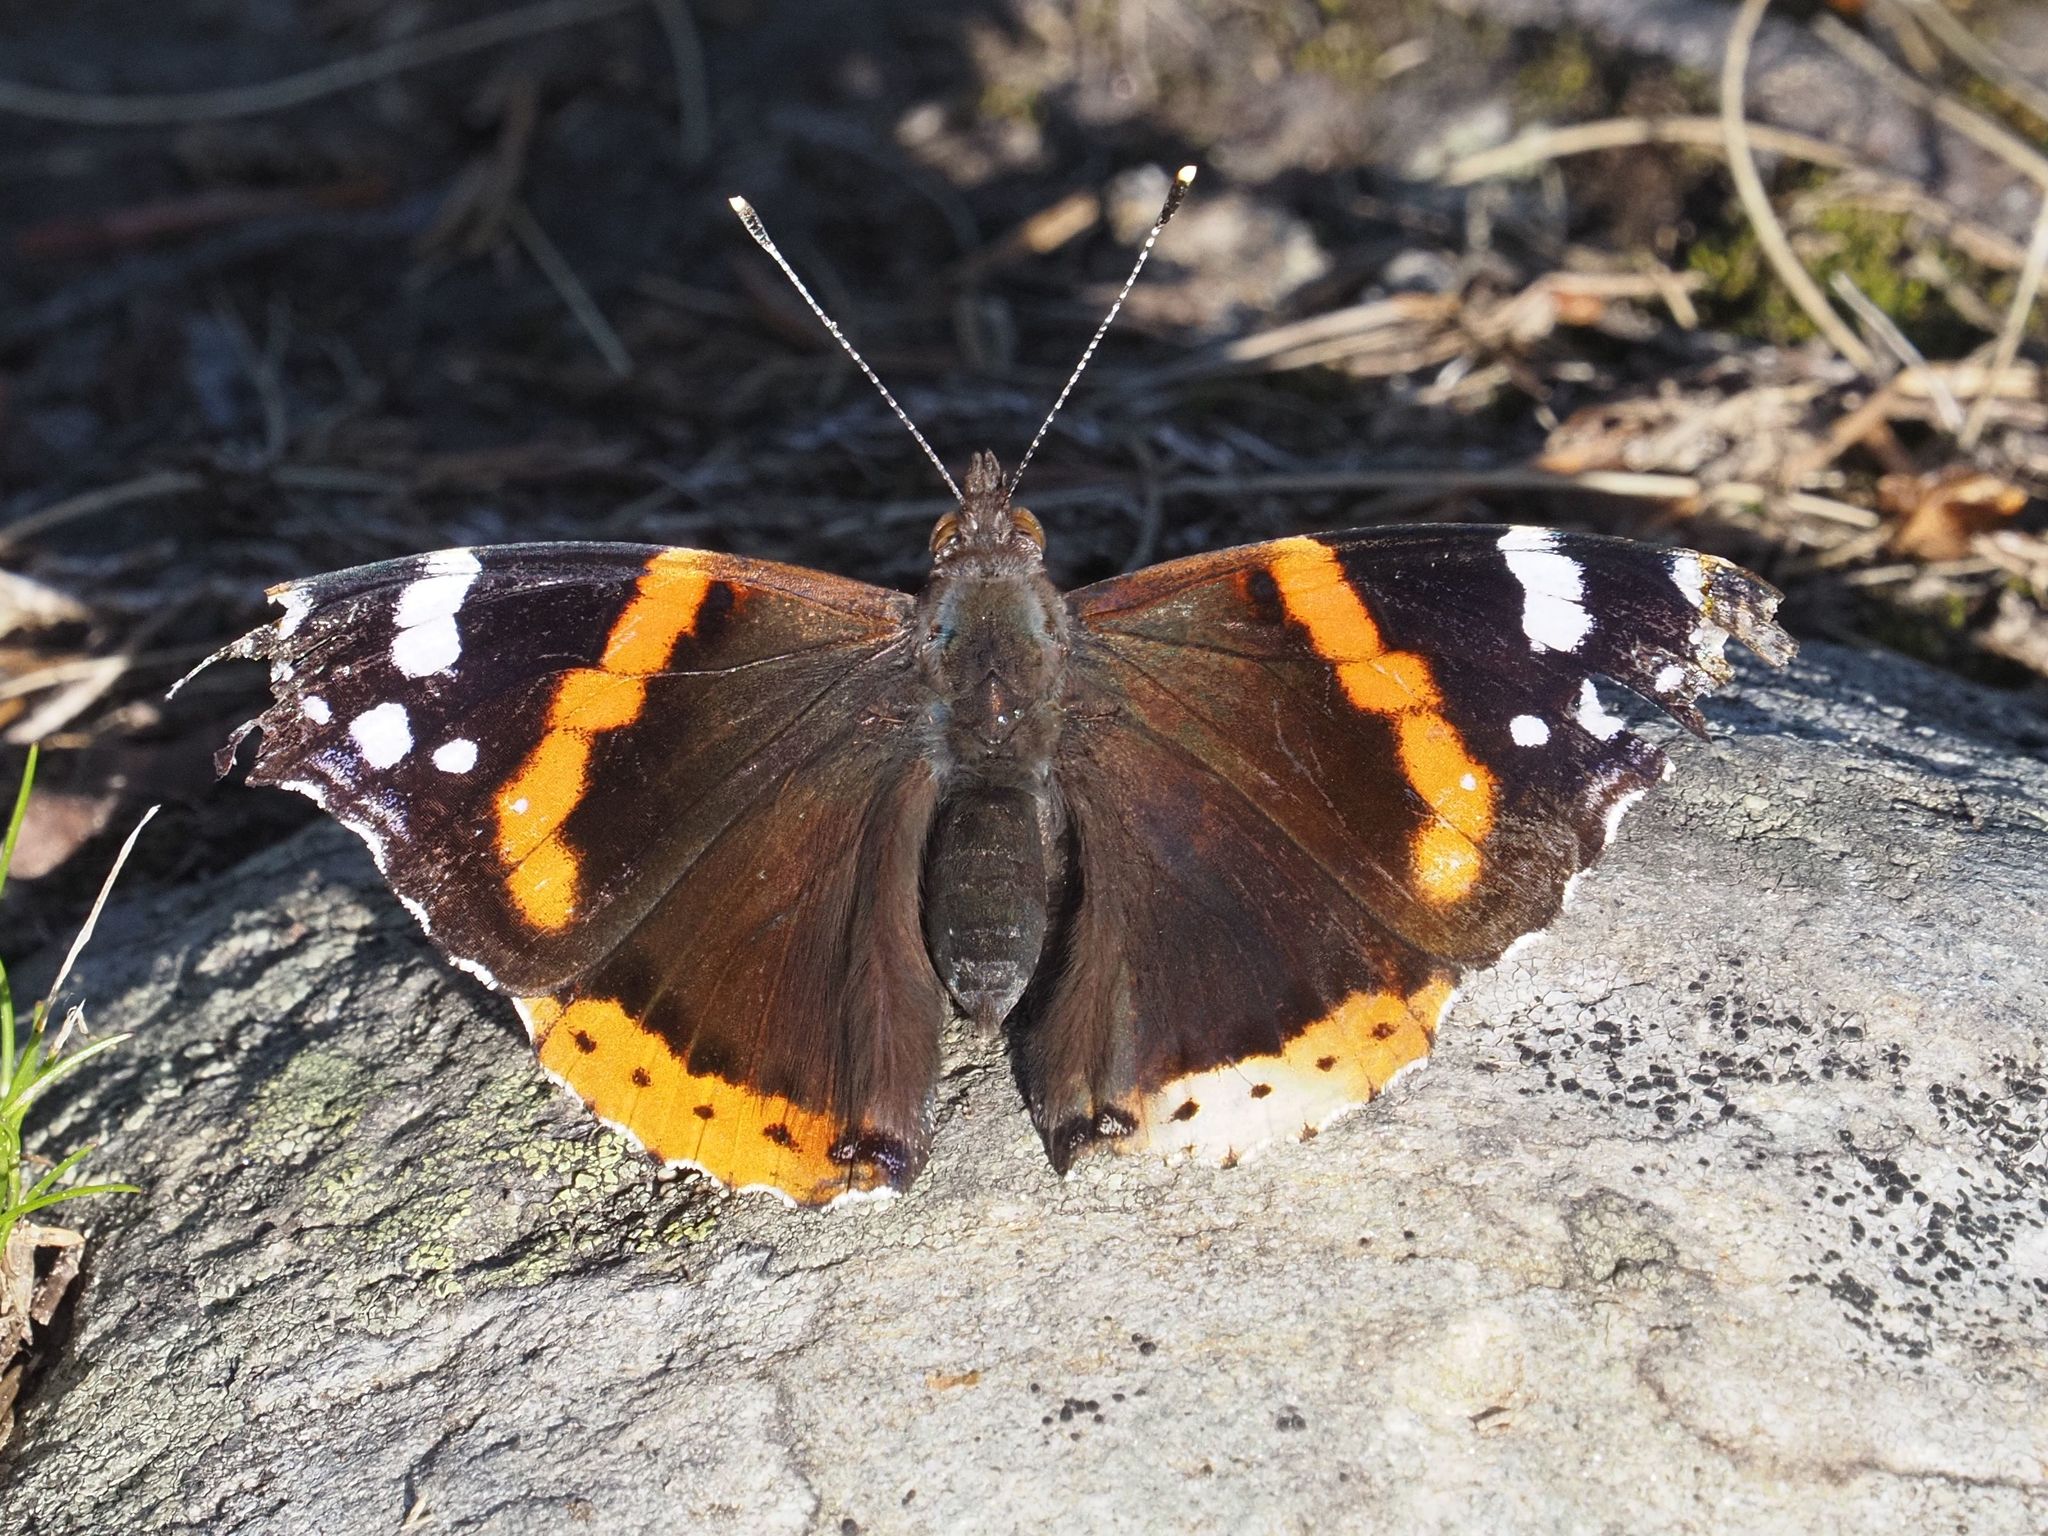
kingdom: Animalia
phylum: Arthropoda
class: Insecta
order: Lepidoptera
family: Nymphalidae
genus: Vanessa
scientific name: Vanessa atalanta
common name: Red admiral
